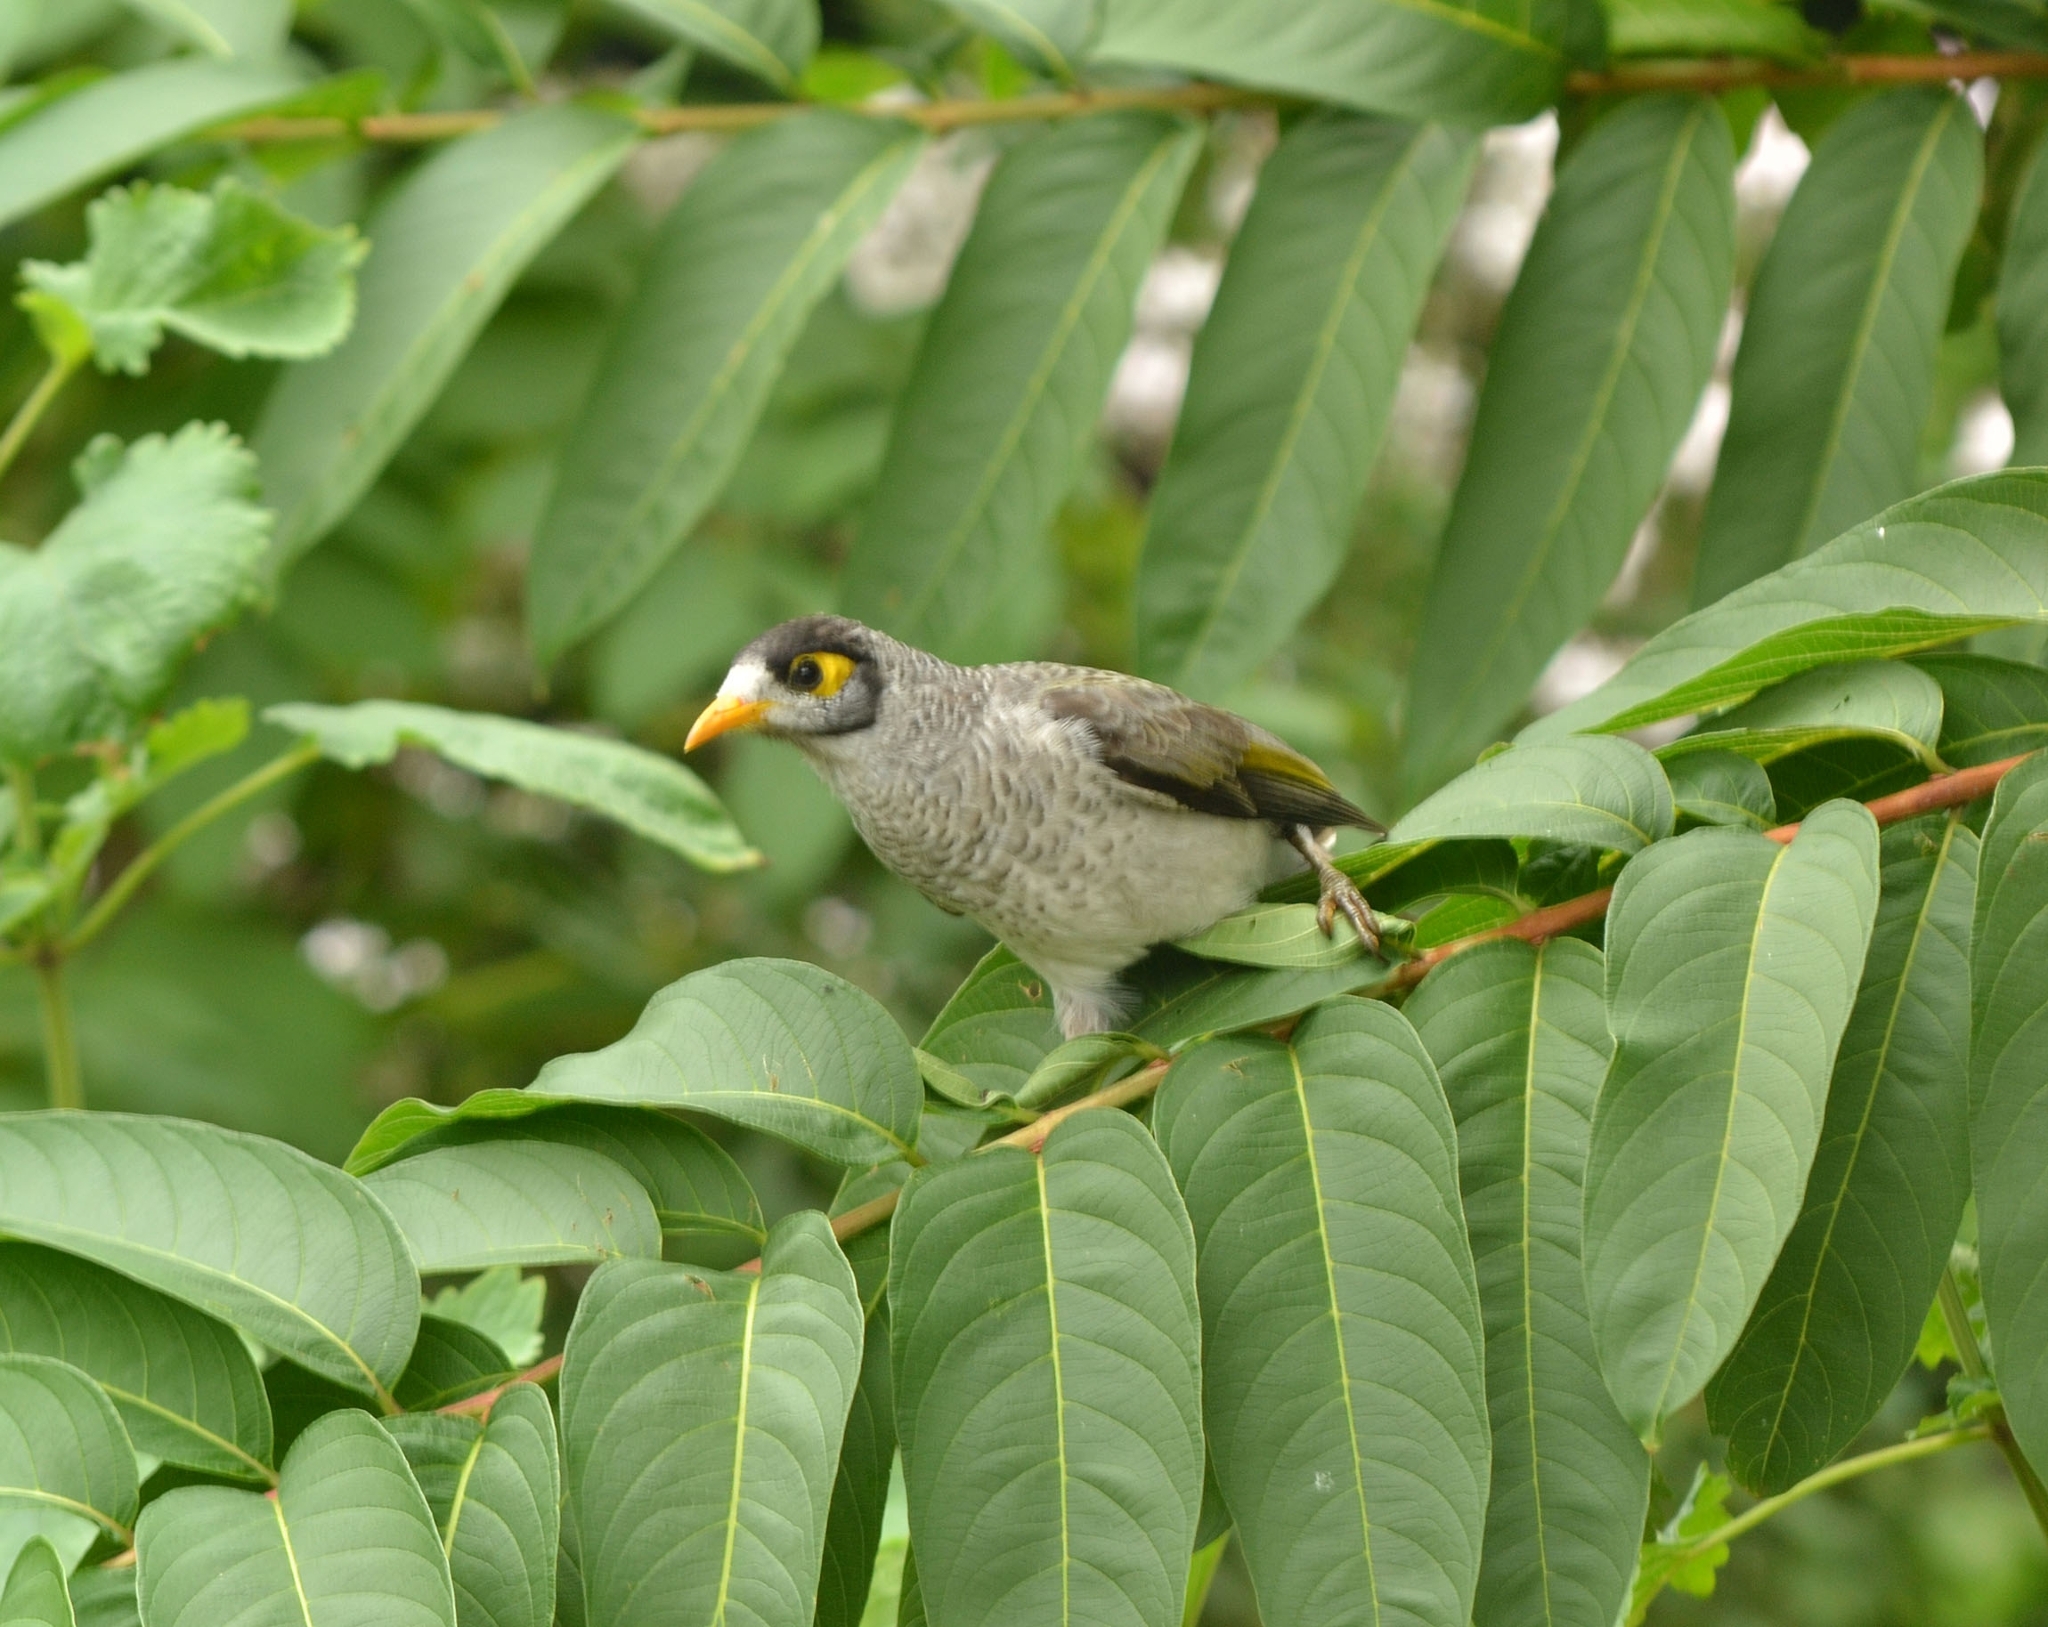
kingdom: Animalia
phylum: Chordata
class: Aves
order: Passeriformes
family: Meliphagidae
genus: Manorina
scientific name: Manorina melanocephala
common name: Noisy miner
